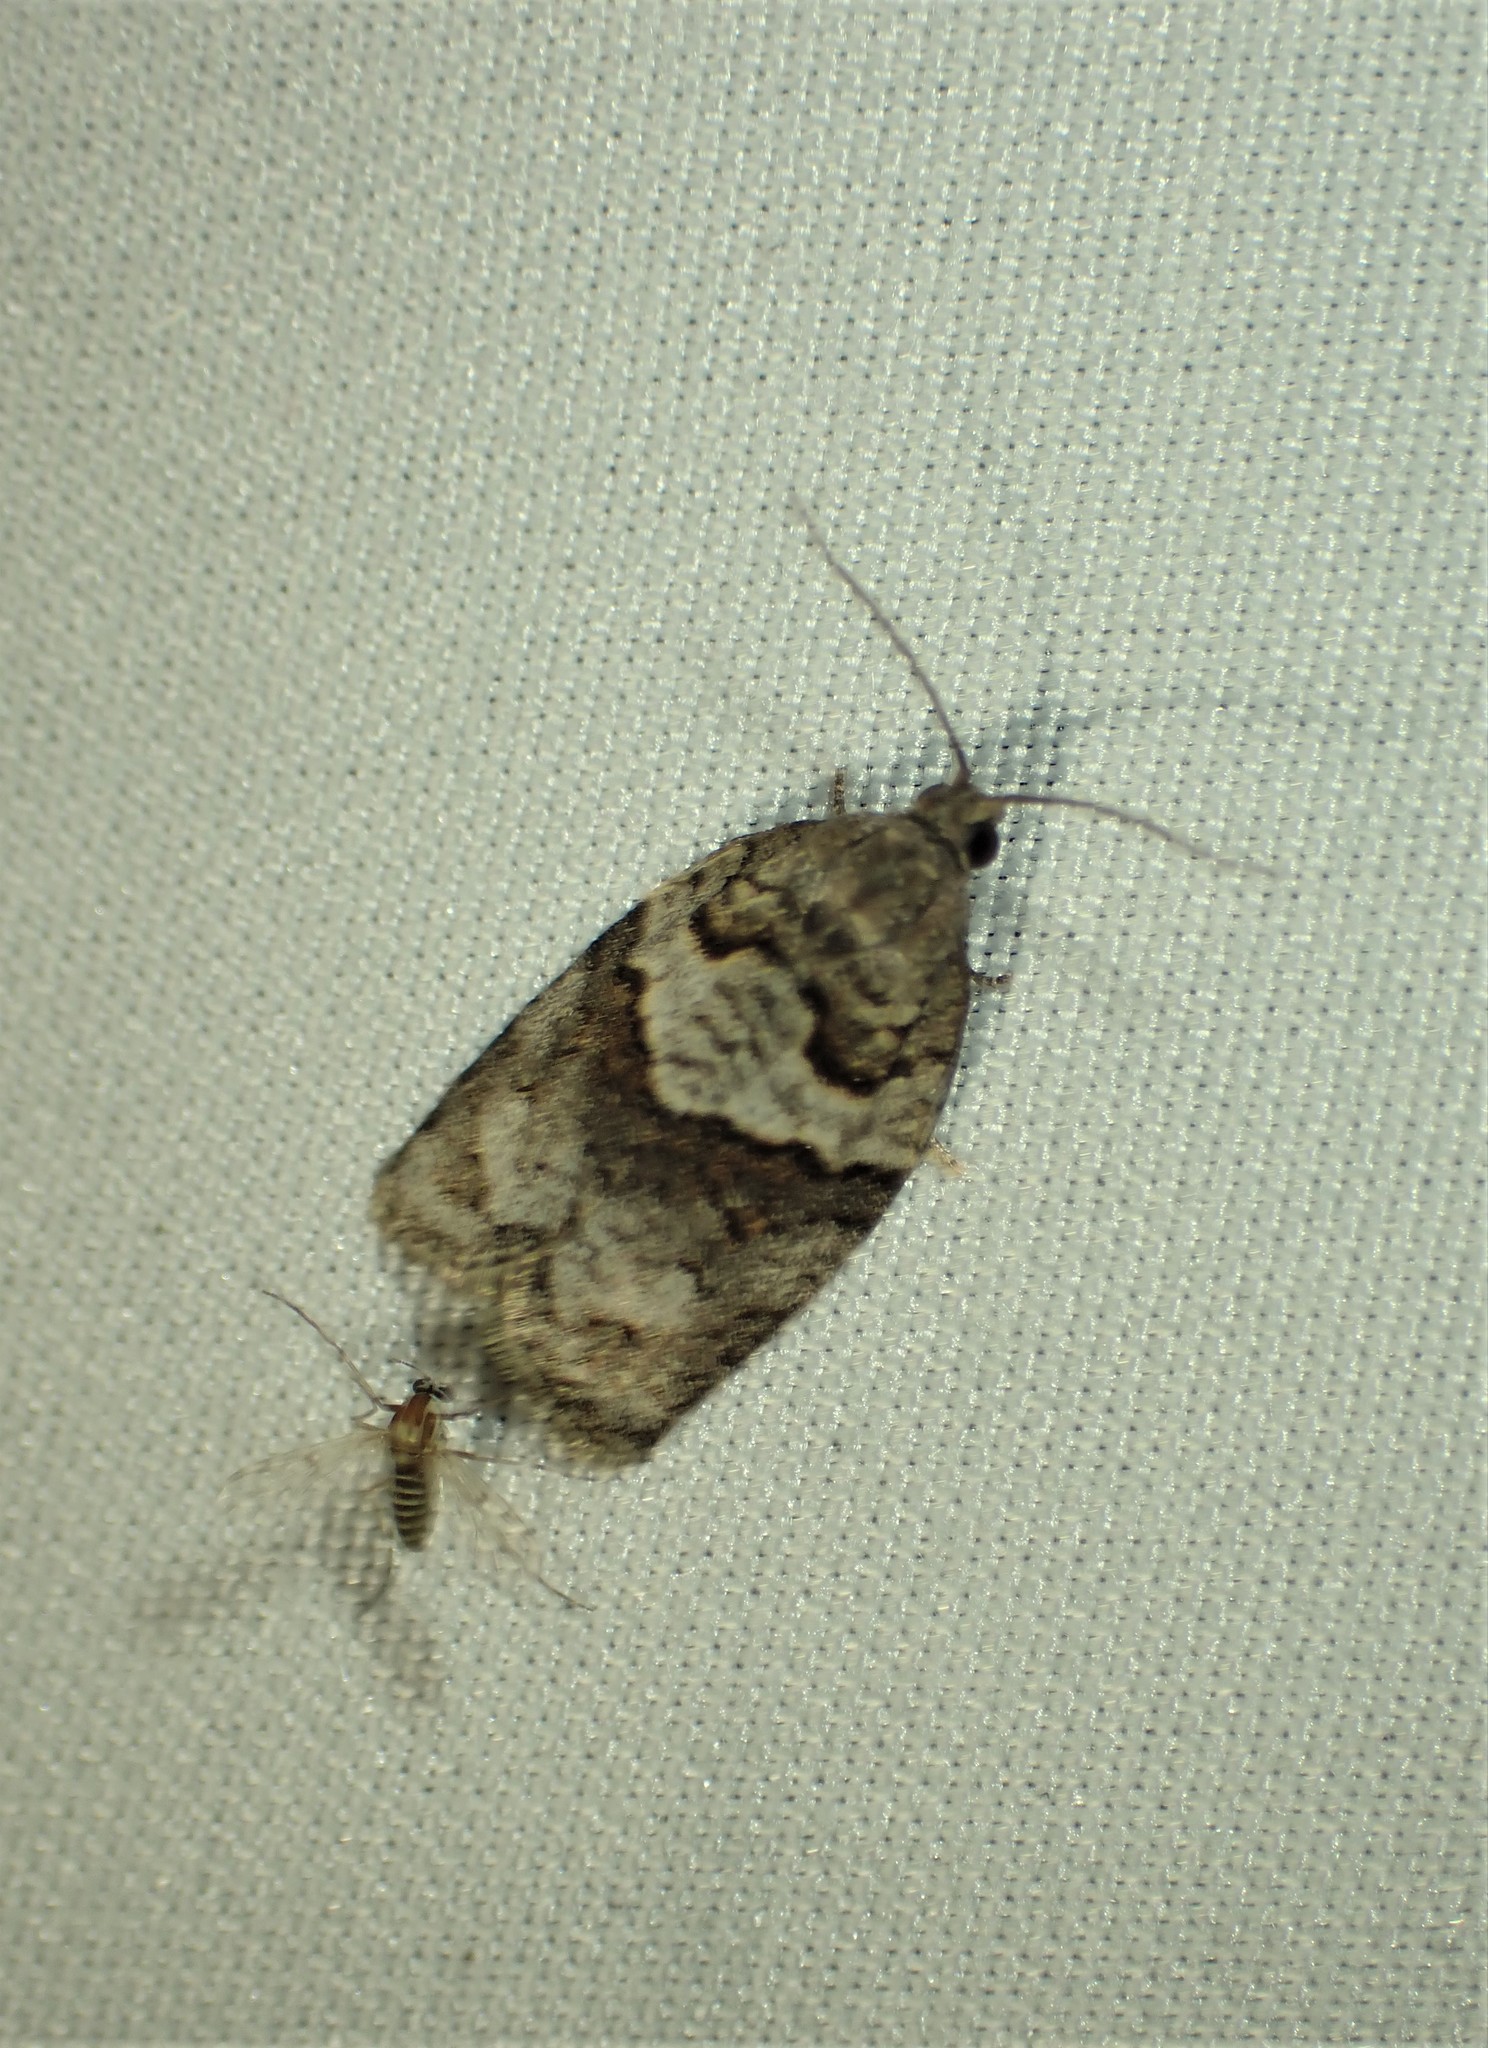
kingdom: Animalia
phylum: Arthropoda
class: Insecta
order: Lepidoptera
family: Tortricidae
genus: Syndemis
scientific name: Syndemis afflictana
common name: Gray leafroller moth
